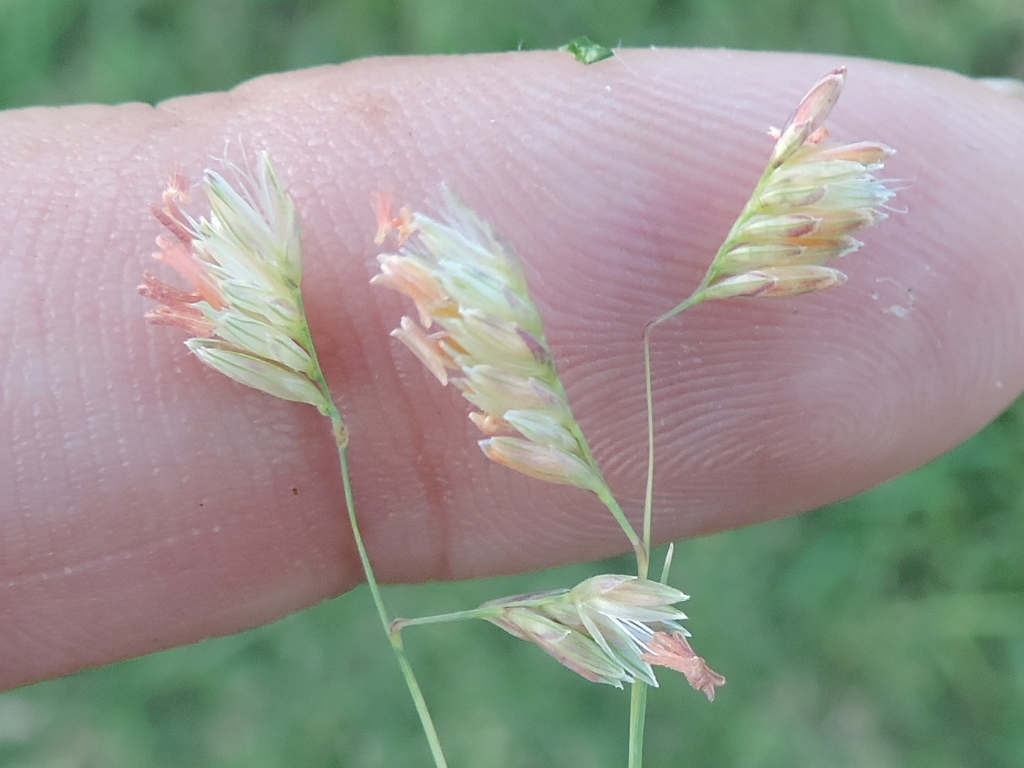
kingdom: Plantae
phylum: Tracheophyta
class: Liliopsida
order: Poales
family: Poaceae
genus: Bouteloua
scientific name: Bouteloua dactyloides
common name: Buffalo grass
